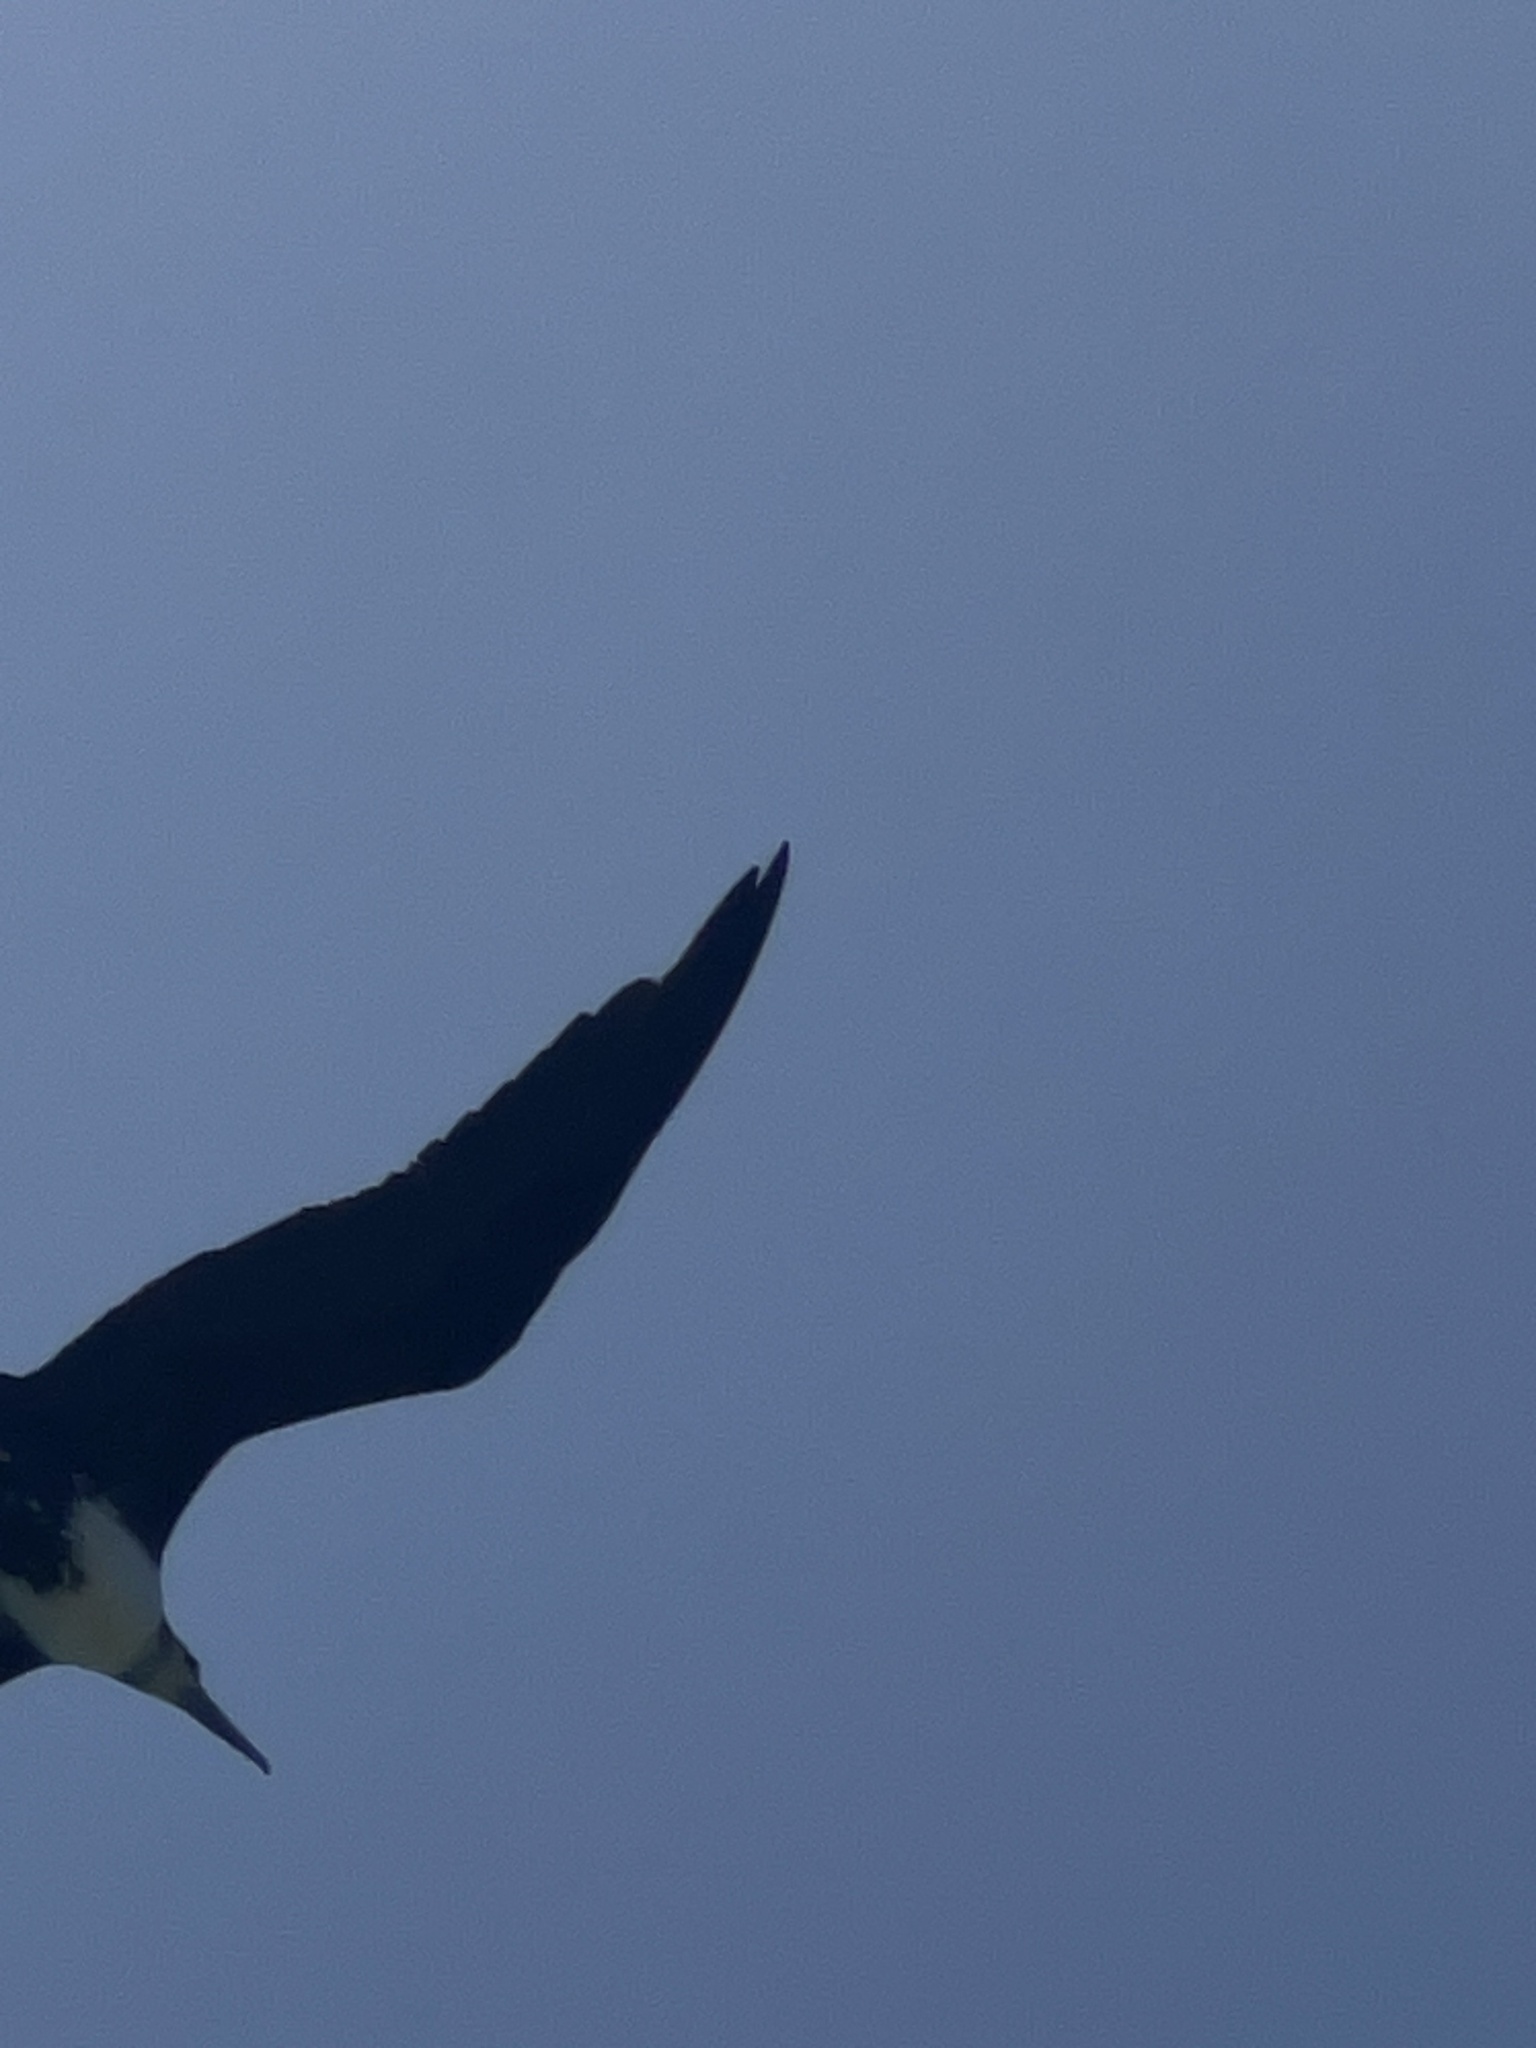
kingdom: Animalia
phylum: Chordata
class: Aves
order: Suliformes
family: Fregatidae
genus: Fregata
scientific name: Fregata magnificens
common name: Magnificent frigatebird
